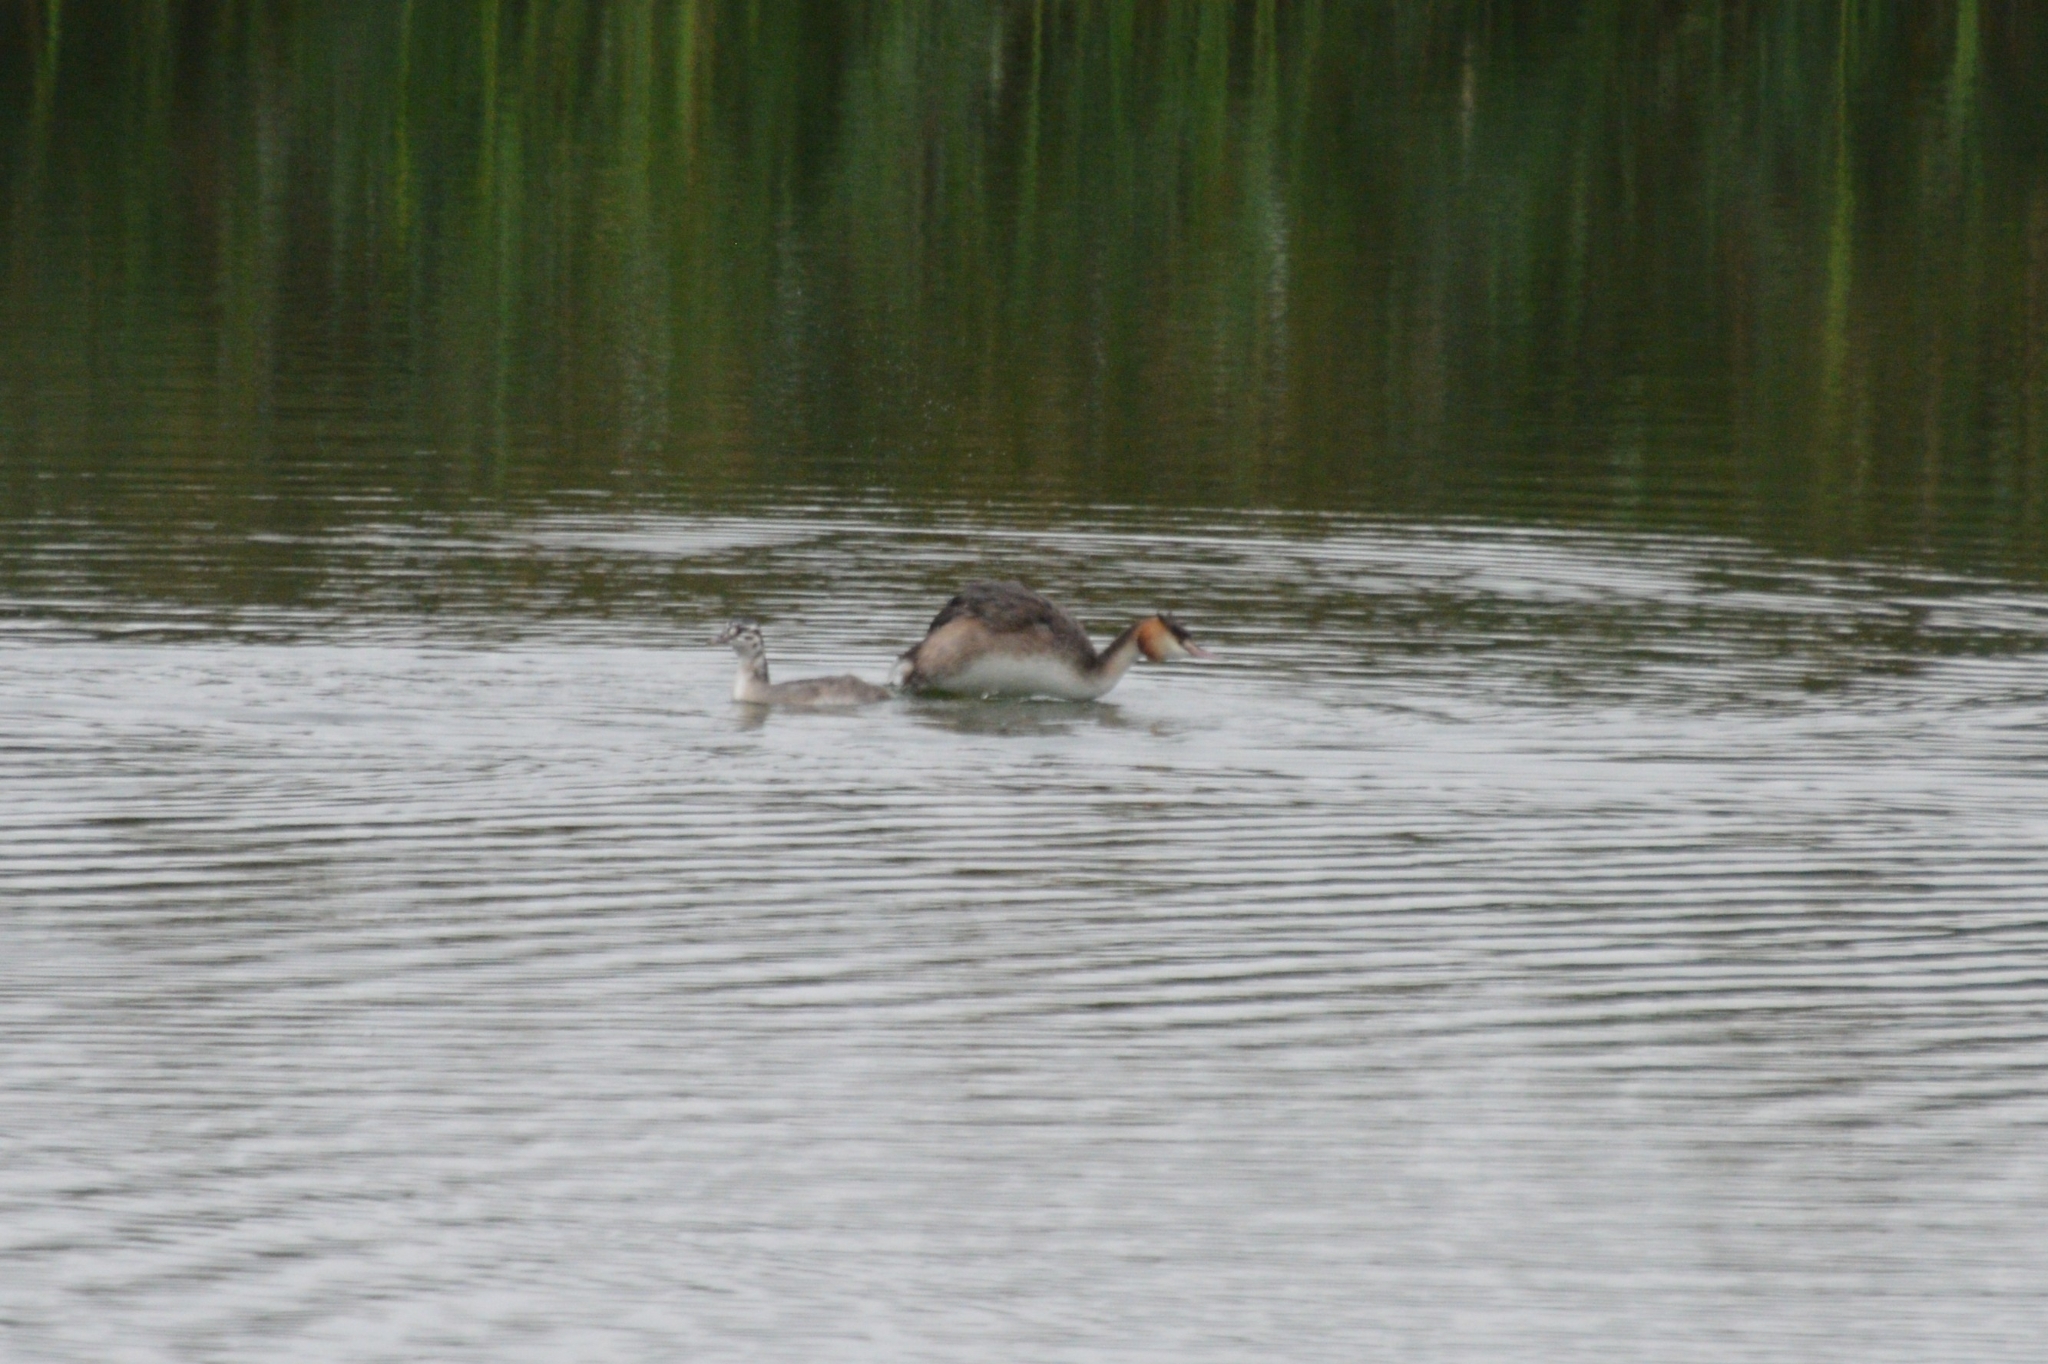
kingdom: Animalia
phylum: Chordata
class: Aves
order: Podicipediformes
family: Podicipedidae
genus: Podiceps
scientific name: Podiceps cristatus
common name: Great crested grebe
